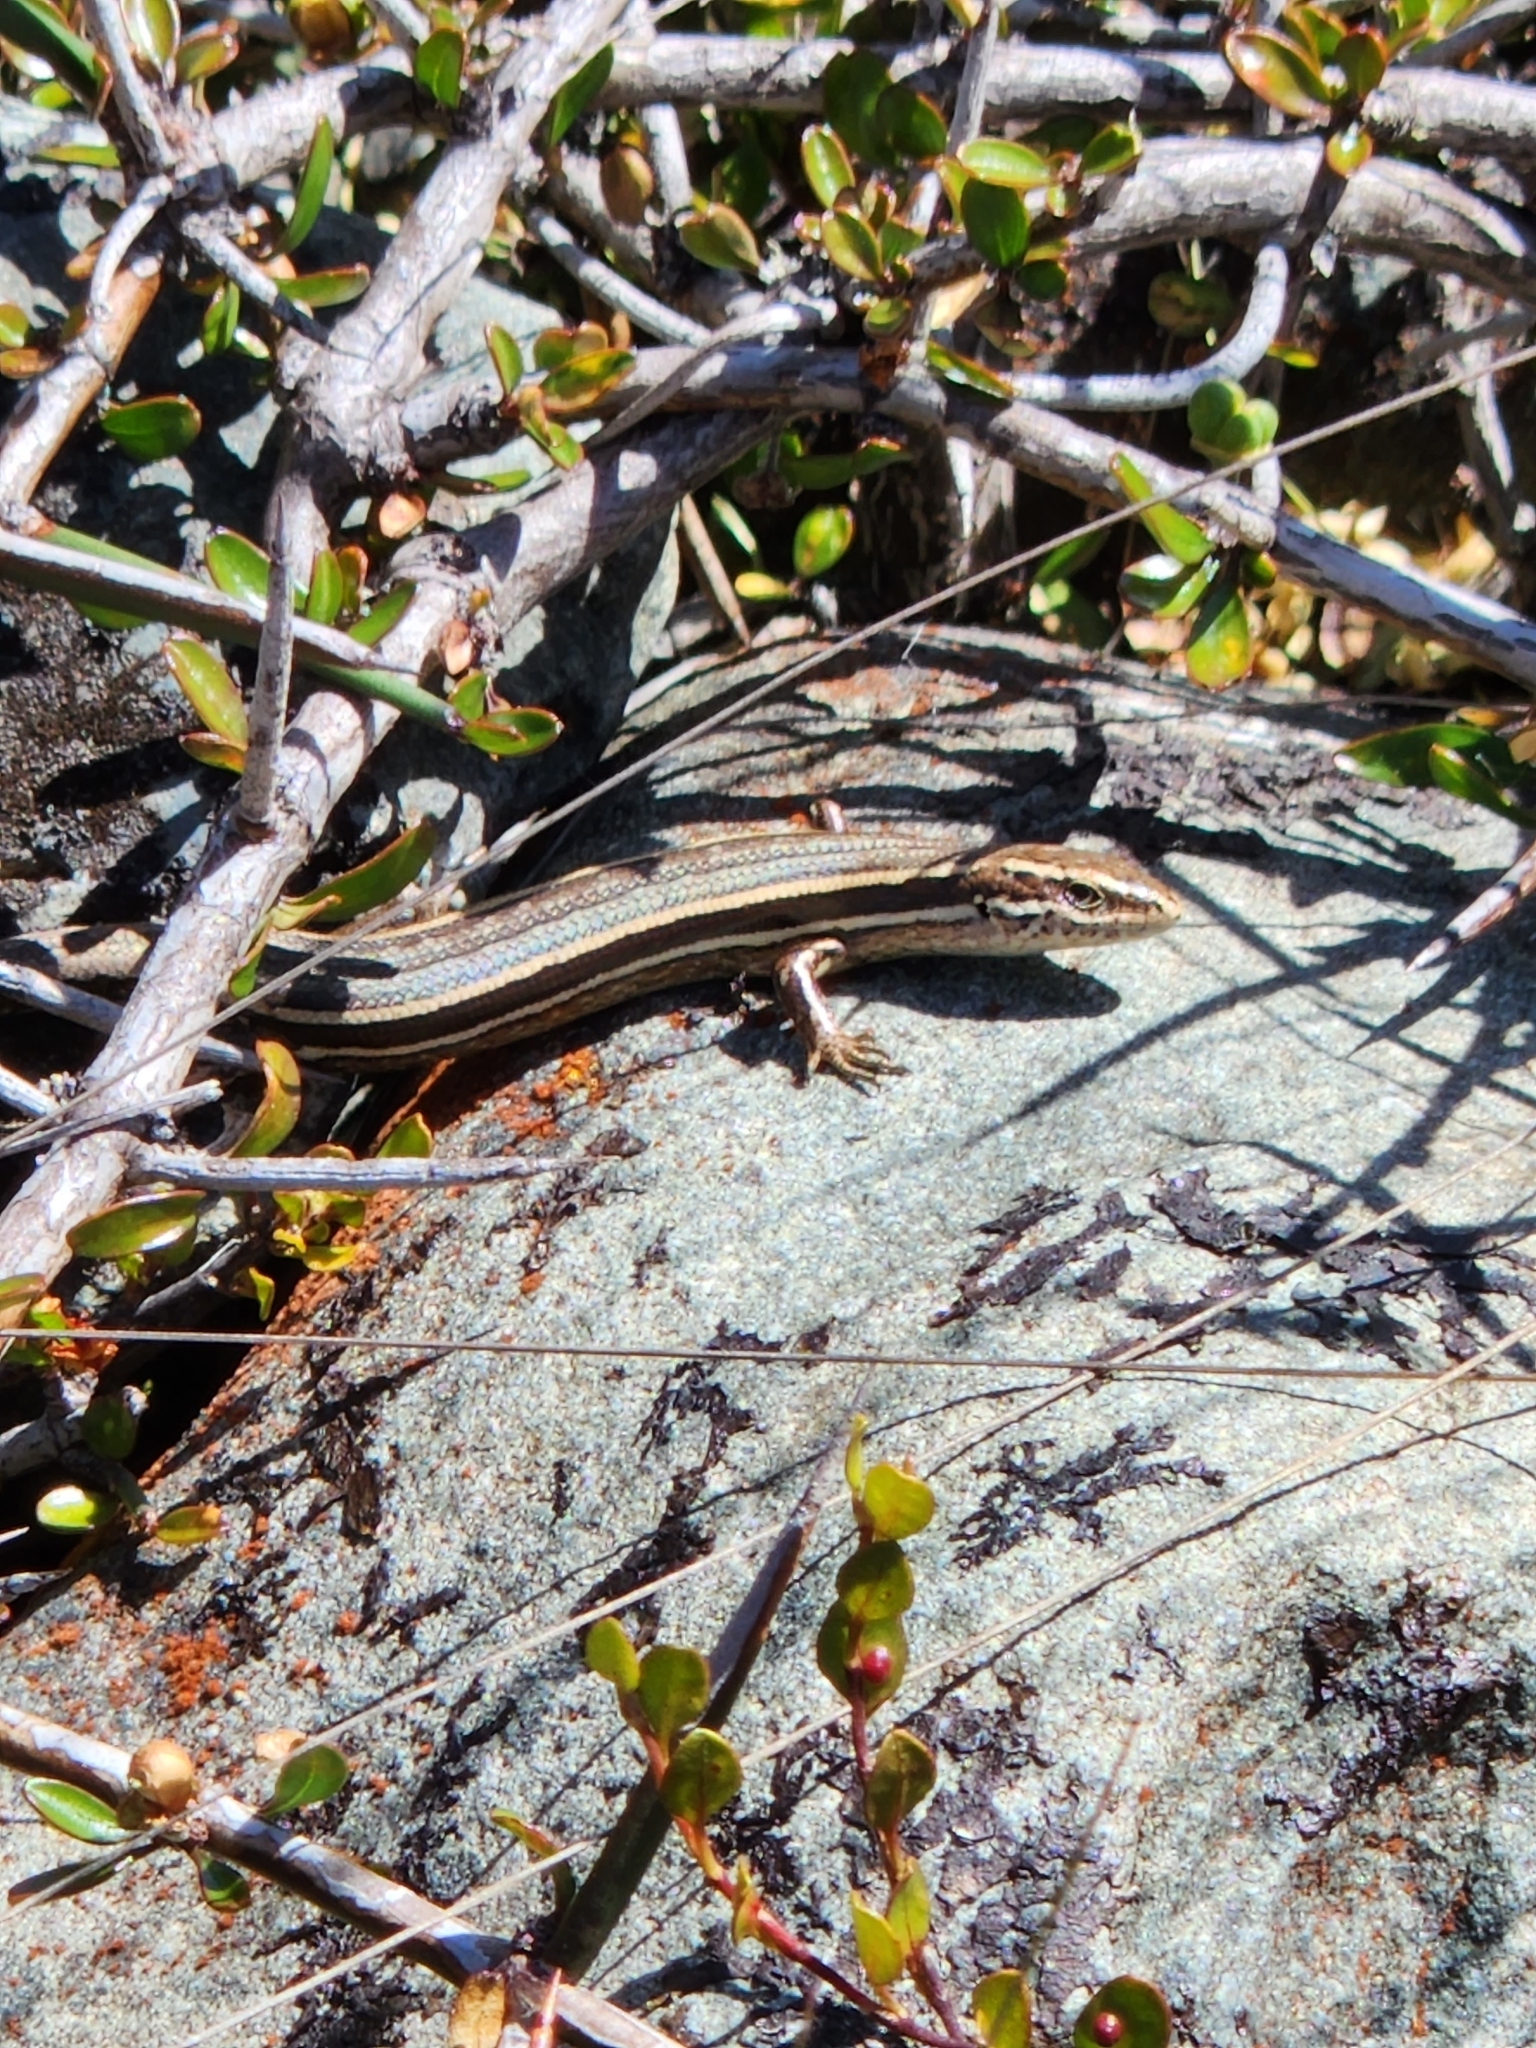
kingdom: Animalia
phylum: Chordata
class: Squamata
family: Scincidae
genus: Oligosoma
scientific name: Oligosoma polychroma
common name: Common new zealand skink
